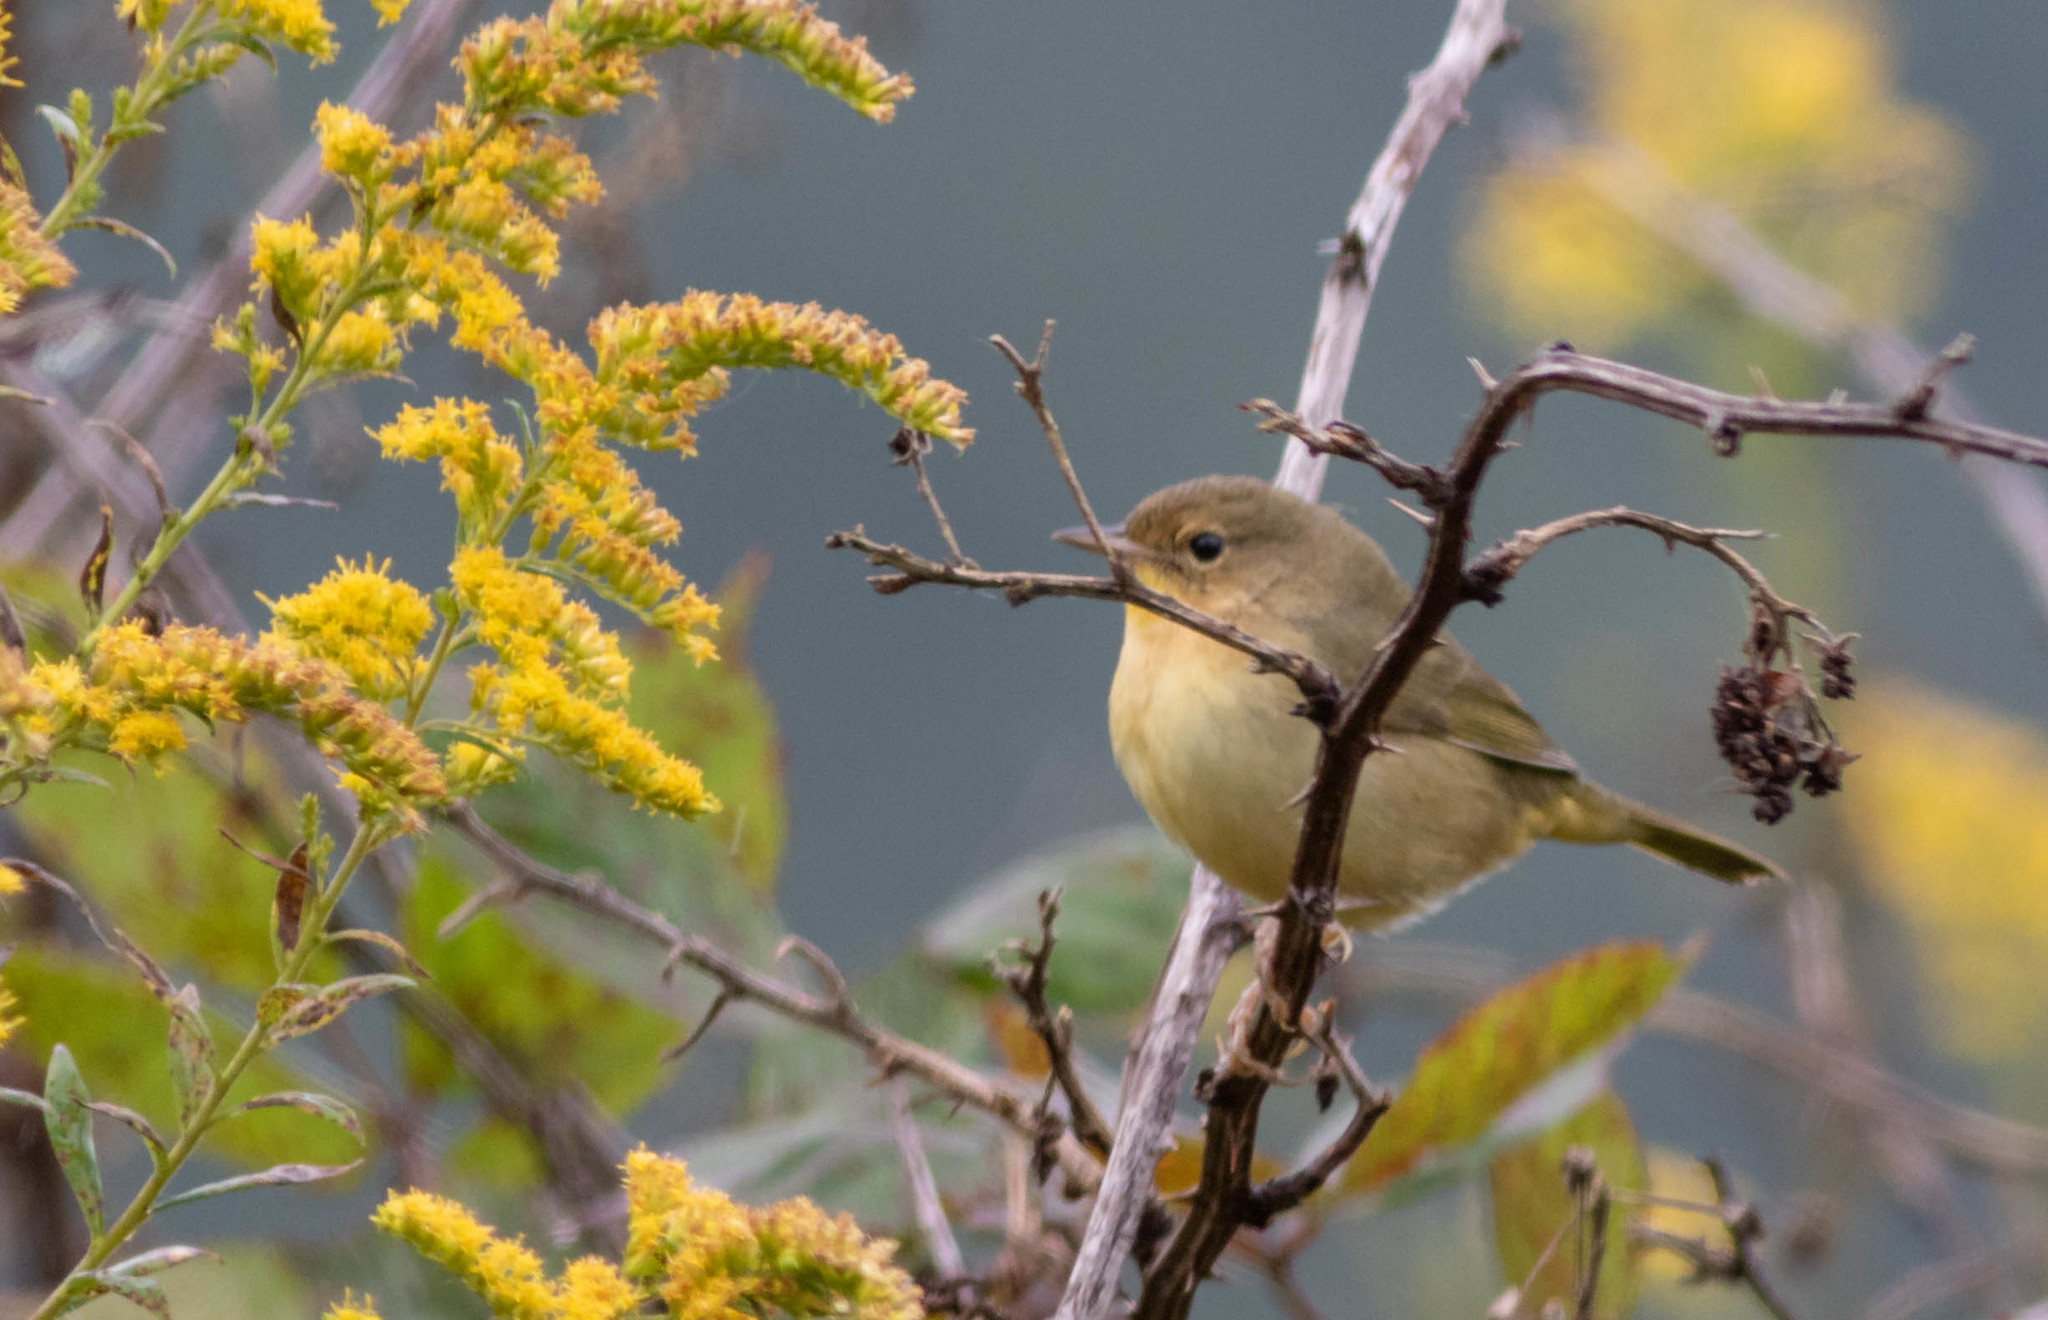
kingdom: Animalia
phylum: Chordata
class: Aves
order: Passeriformes
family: Parulidae
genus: Geothlypis
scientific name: Geothlypis trichas
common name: Common yellowthroat
